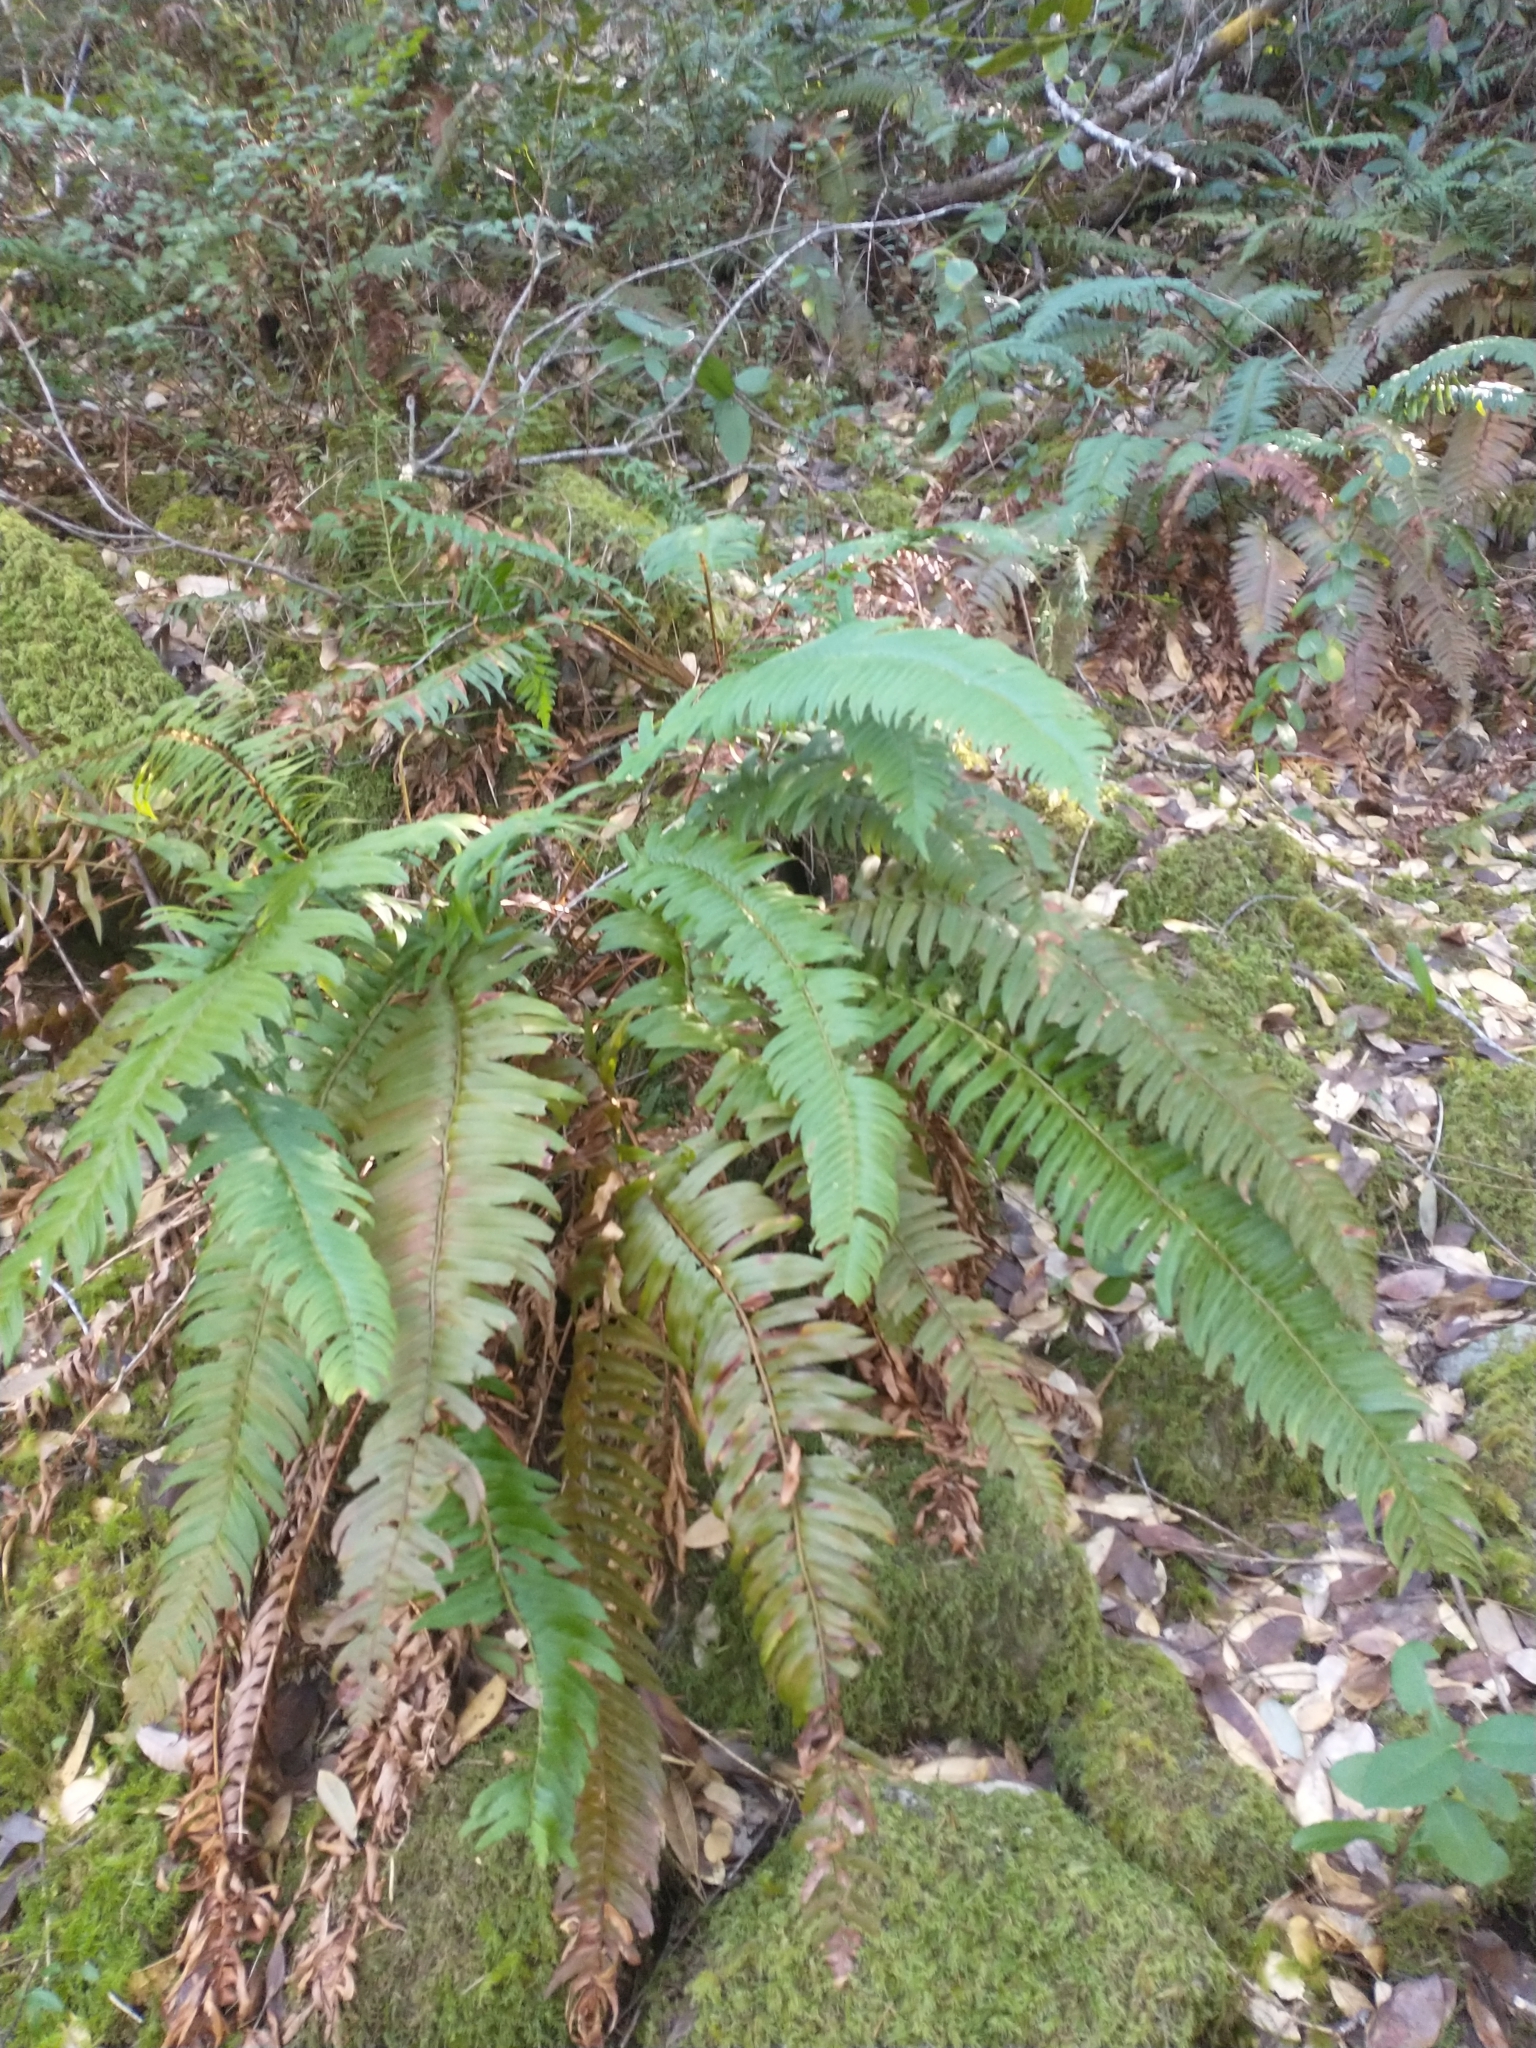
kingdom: Plantae
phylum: Tracheophyta
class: Polypodiopsida
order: Polypodiales
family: Dryopteridaceae
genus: Polystichum
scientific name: Polystichum munitum
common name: Western sword-fern
